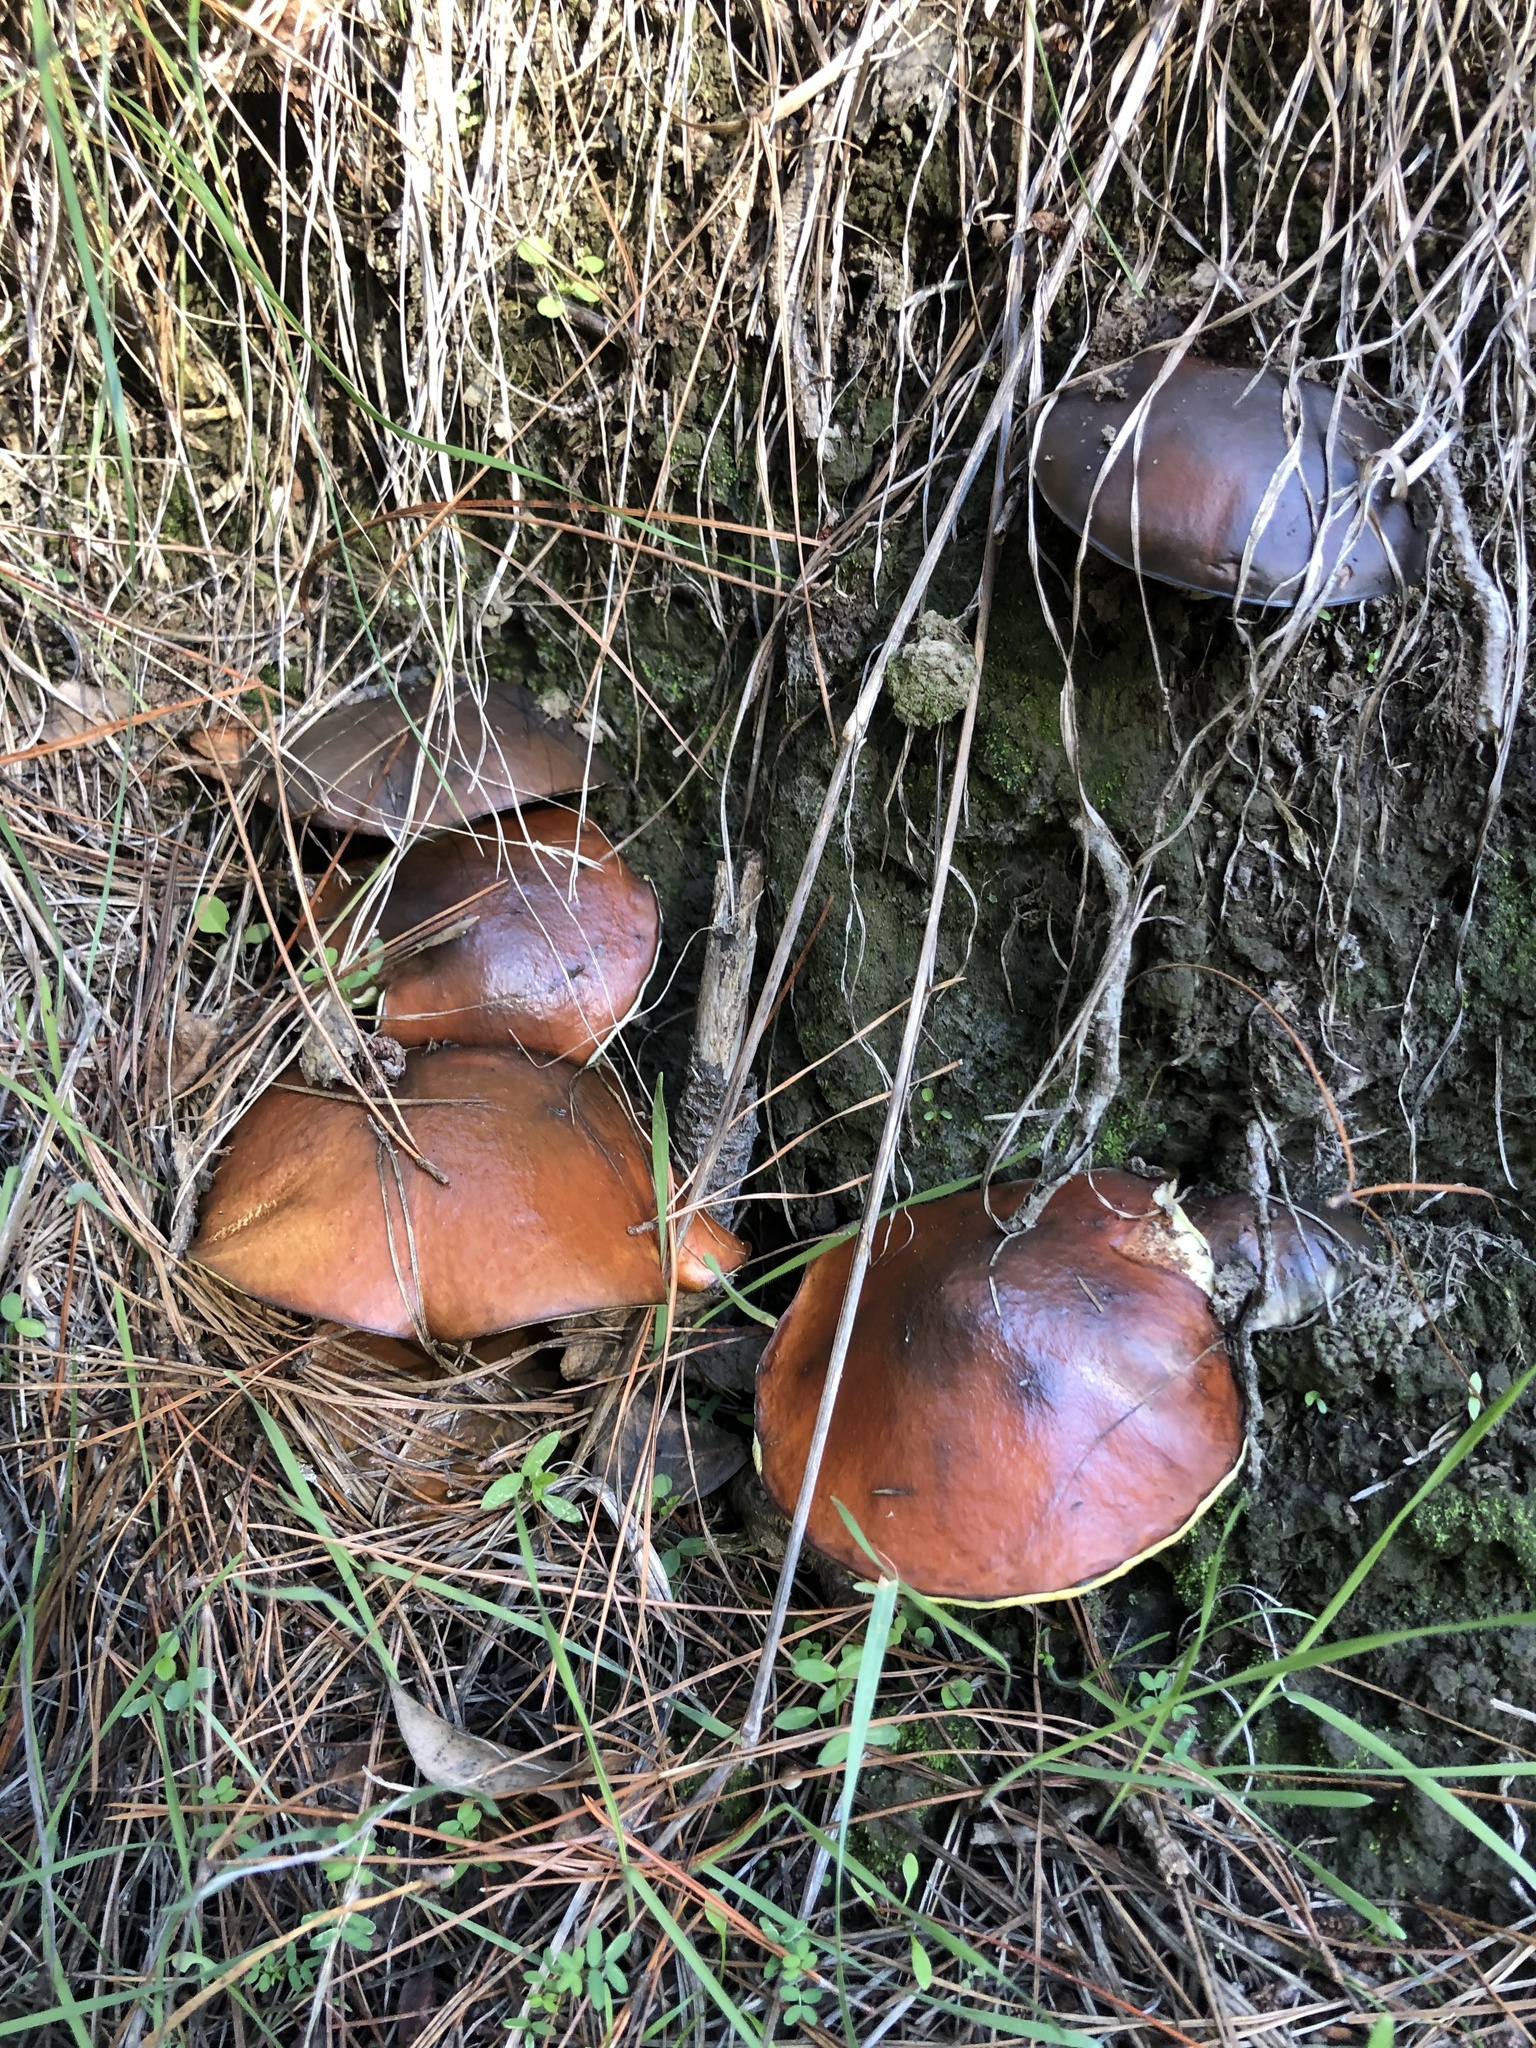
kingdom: Fungi
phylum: Basidiomycota
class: Agaricomycetes
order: Boletales
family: Suillaceae
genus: Suillus
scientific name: Suillus granulatus
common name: Weeping bolete
